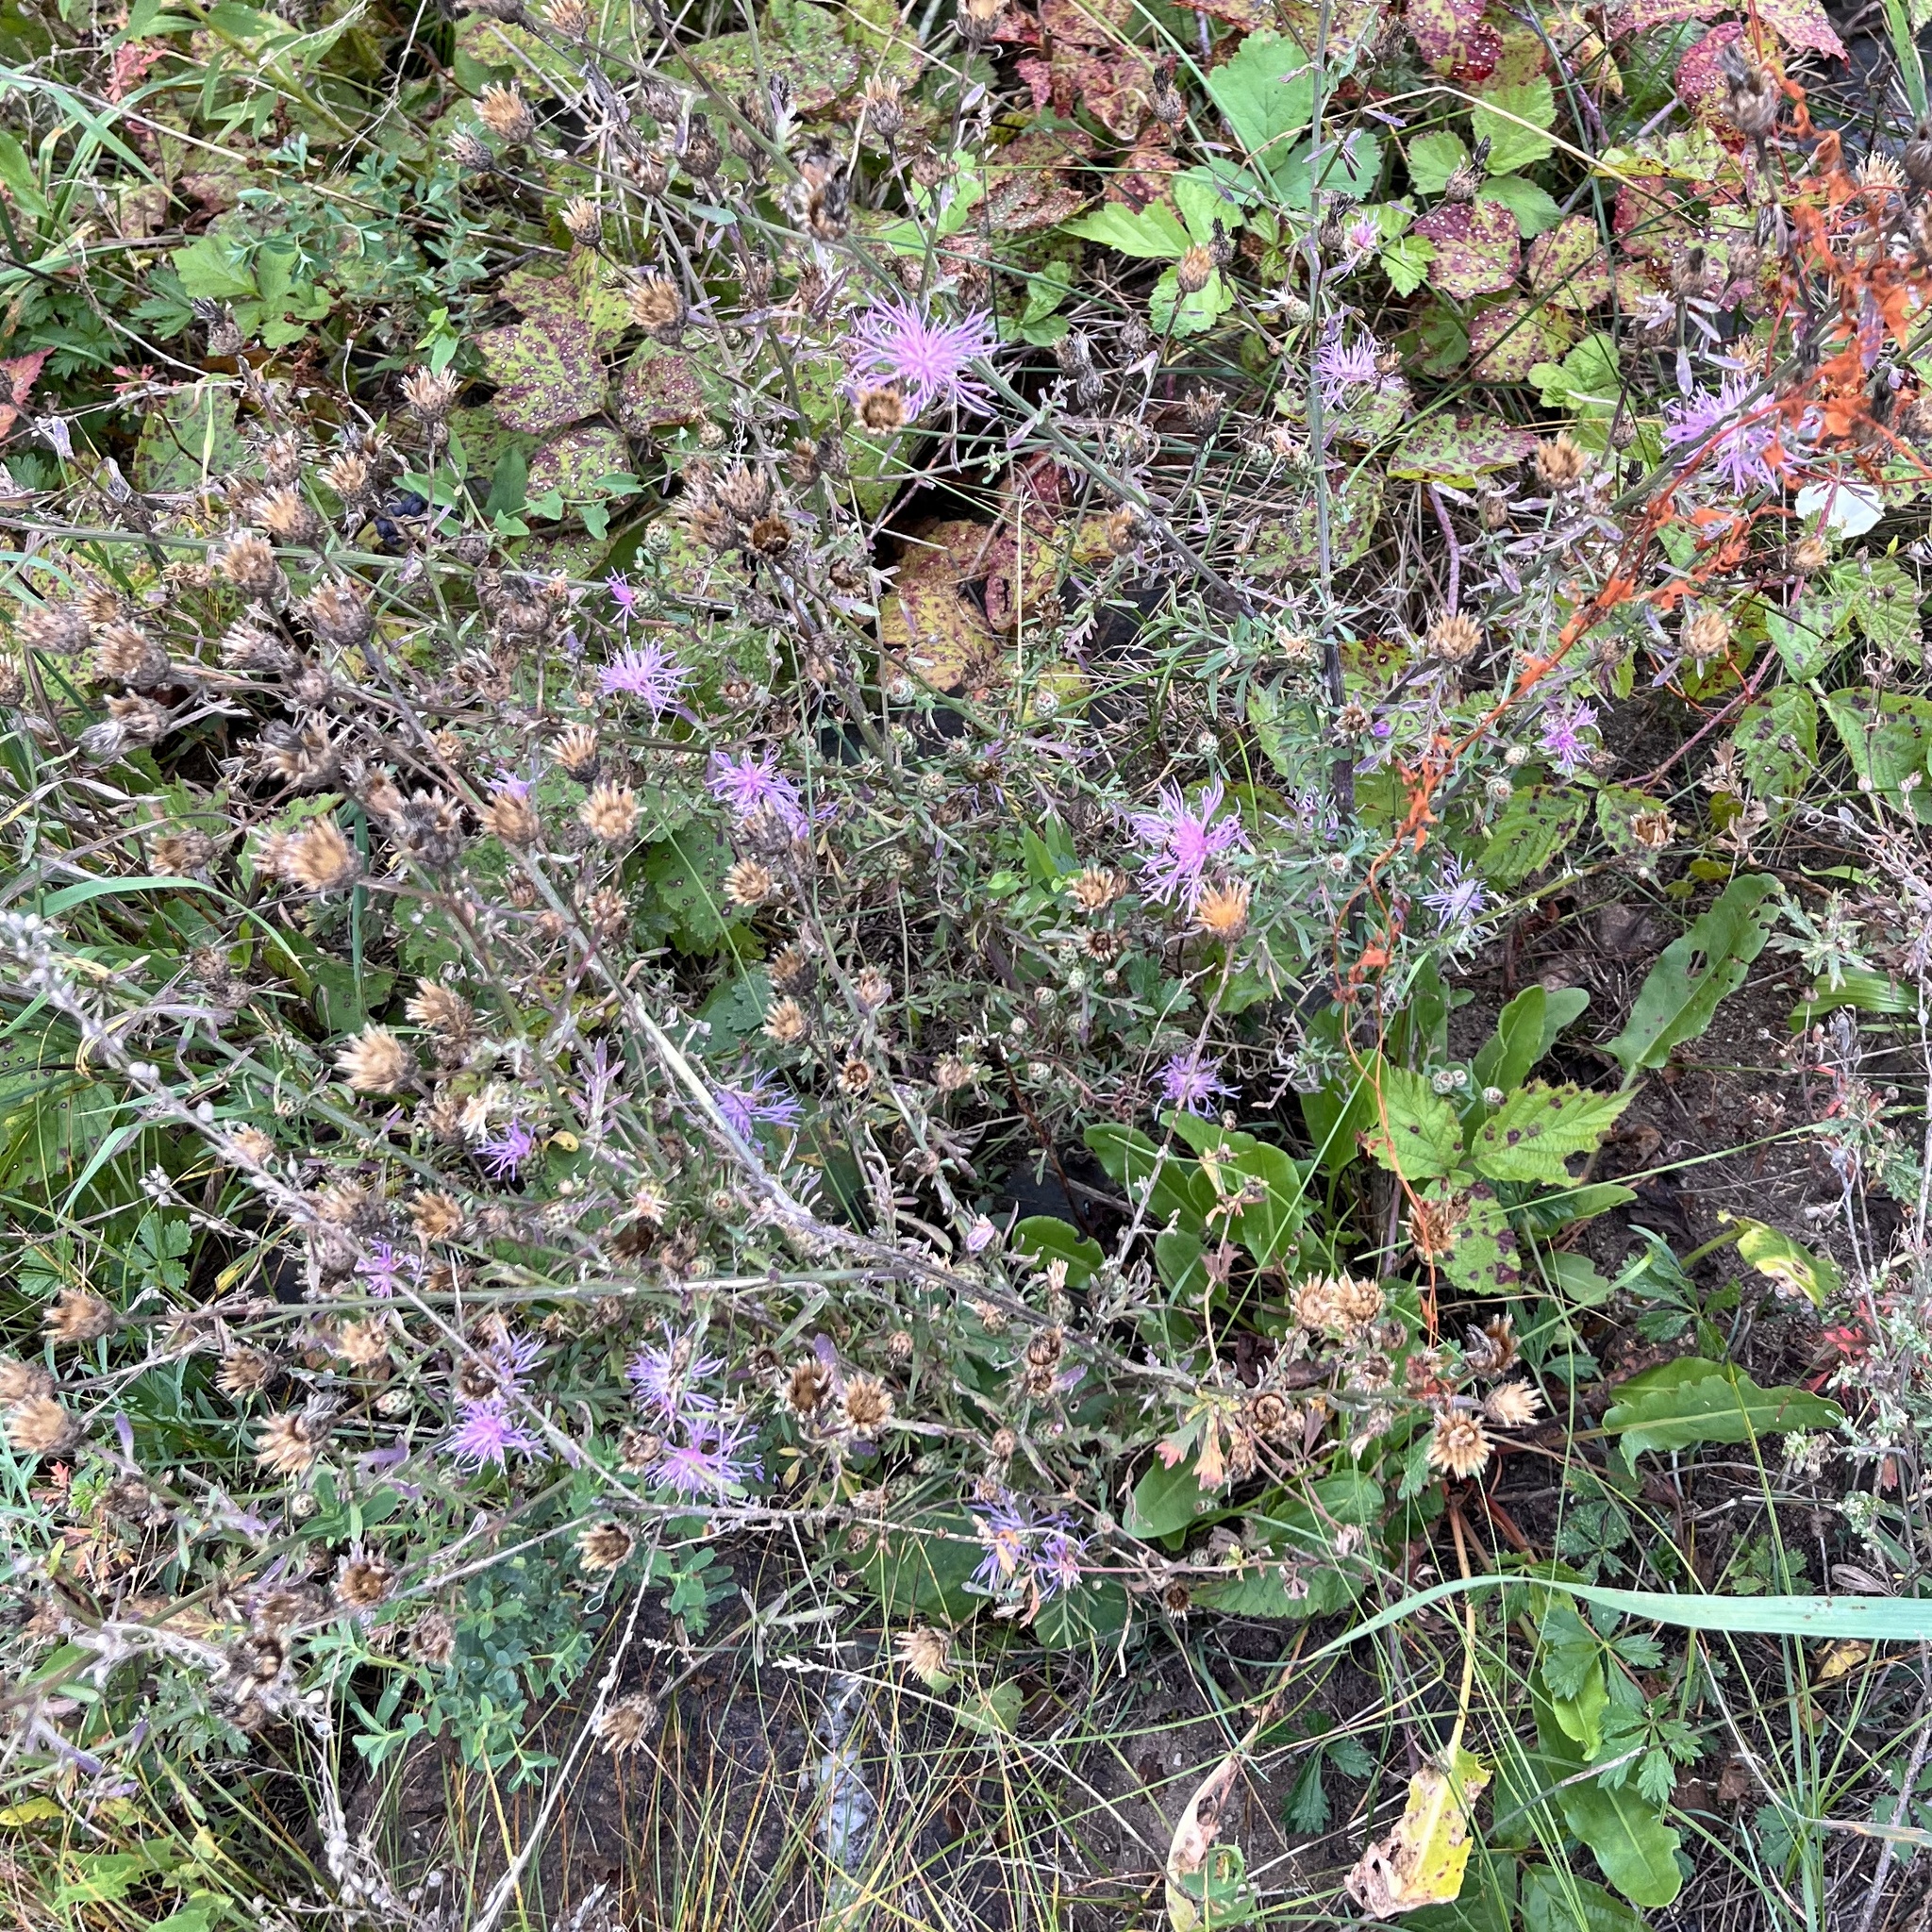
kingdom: Plantae
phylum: Tracheophyta
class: Magnoliopsida
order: Asterales
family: Asteraceae
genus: Centaurea
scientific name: Centaurea stoebe
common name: Spotted knapweed
